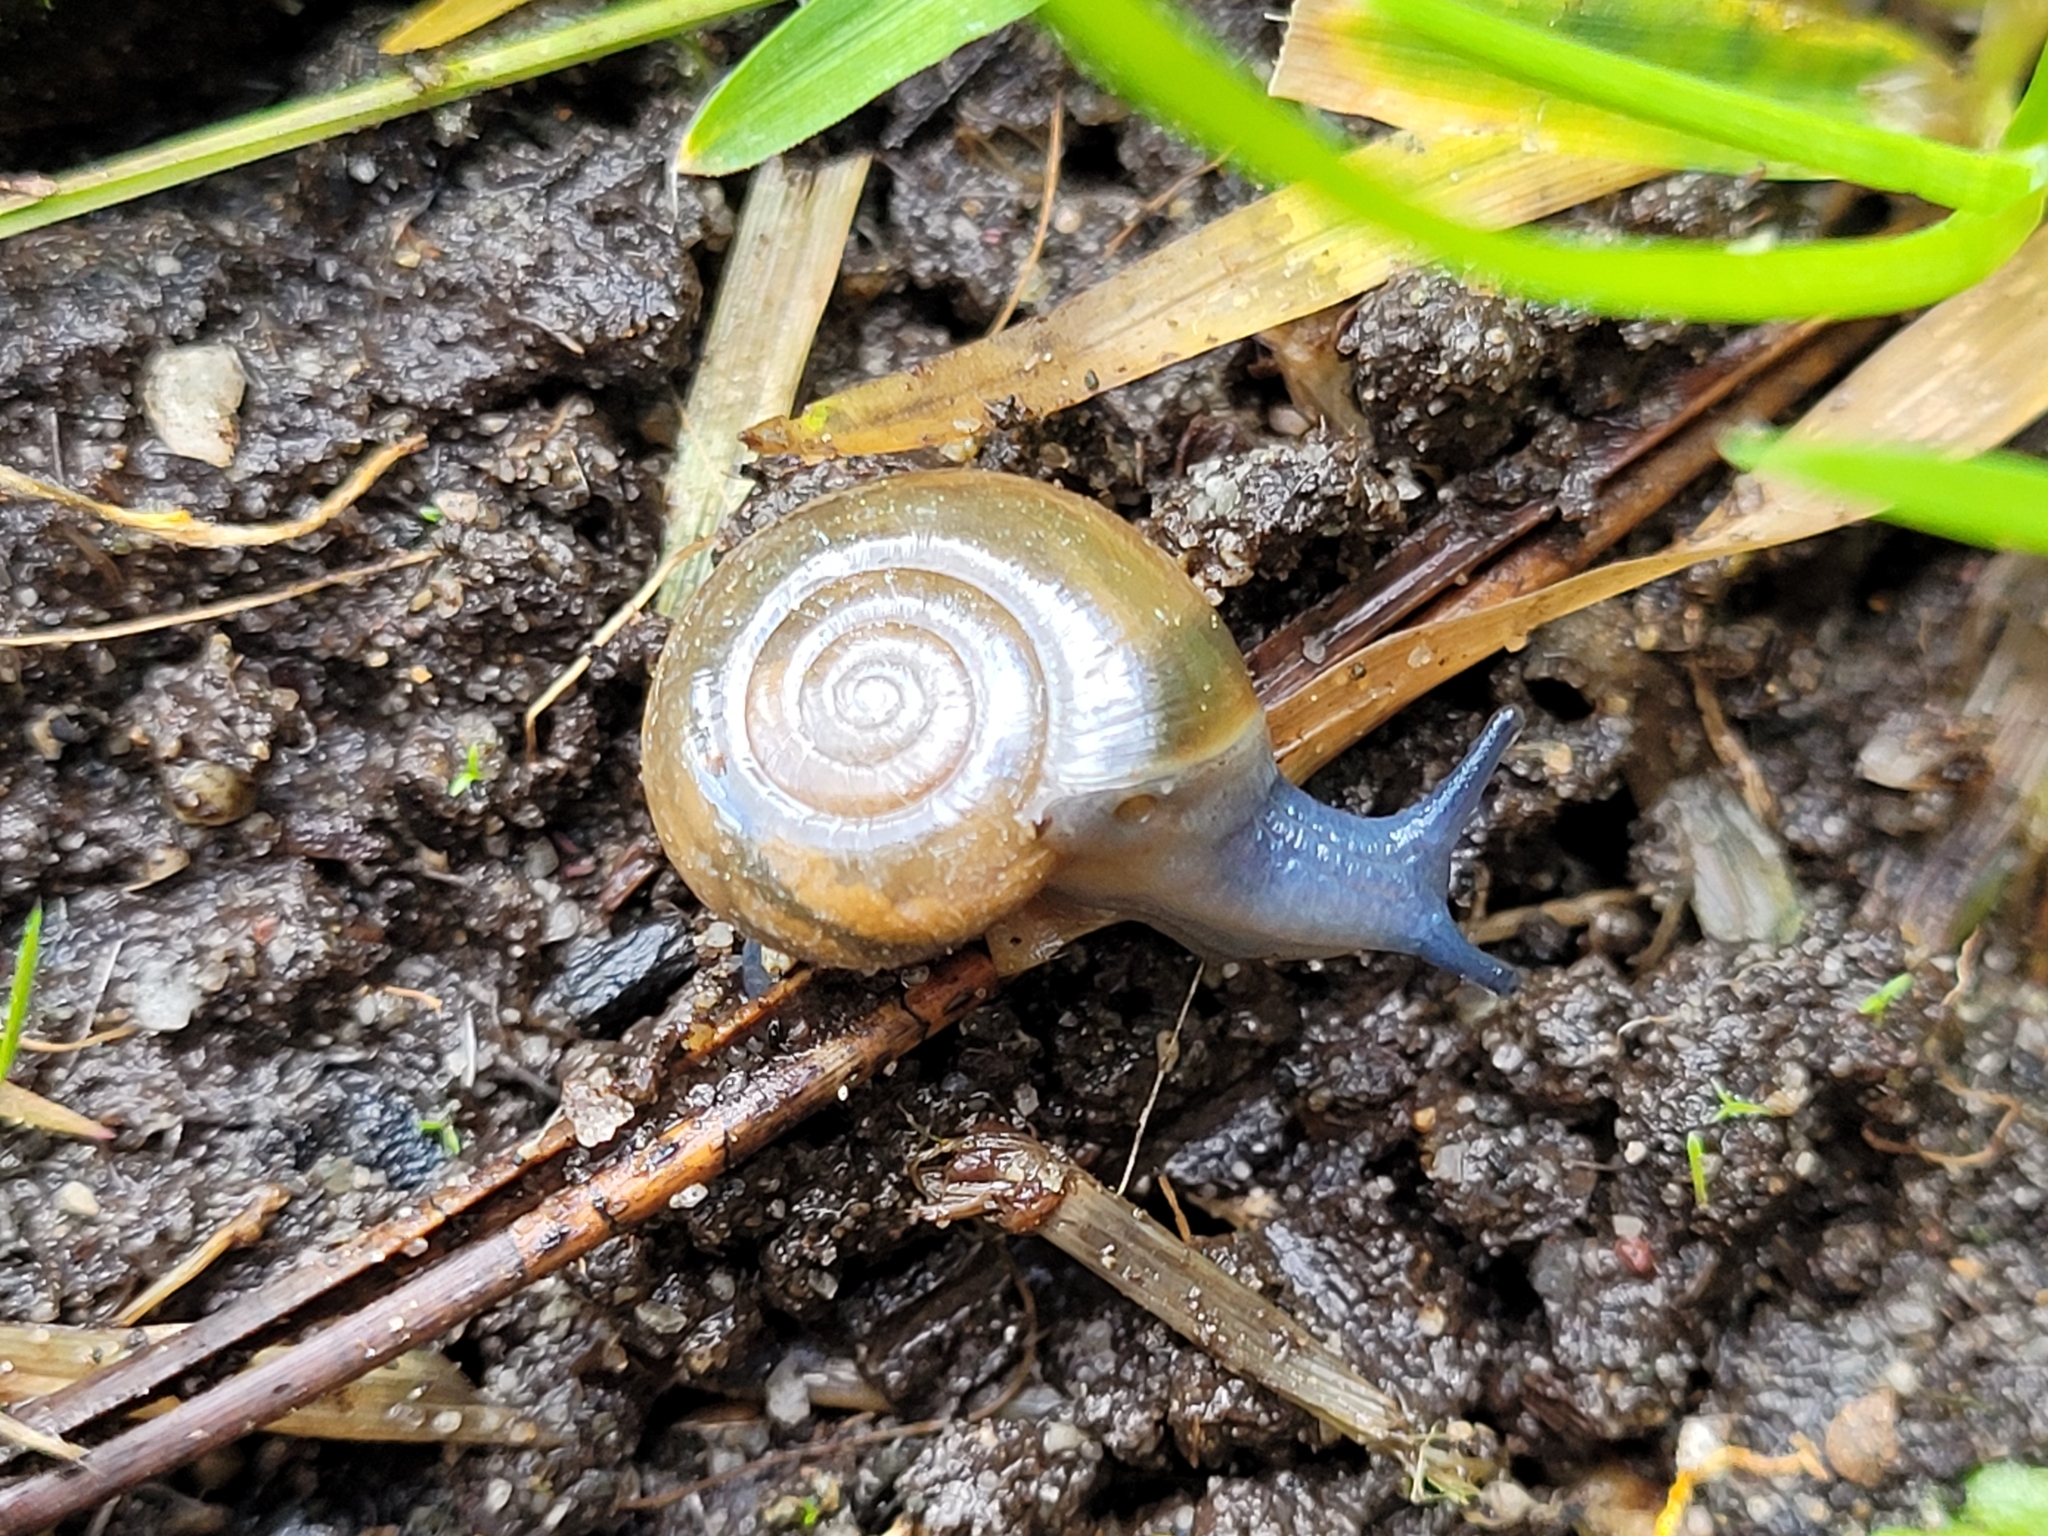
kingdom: Animalia
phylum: Mollusca
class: Gastropoda
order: Stylommatophora
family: Oxychilidae
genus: Oxychilus
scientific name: Oxychilus draparnaudi
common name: Draparnaud's glass snail
